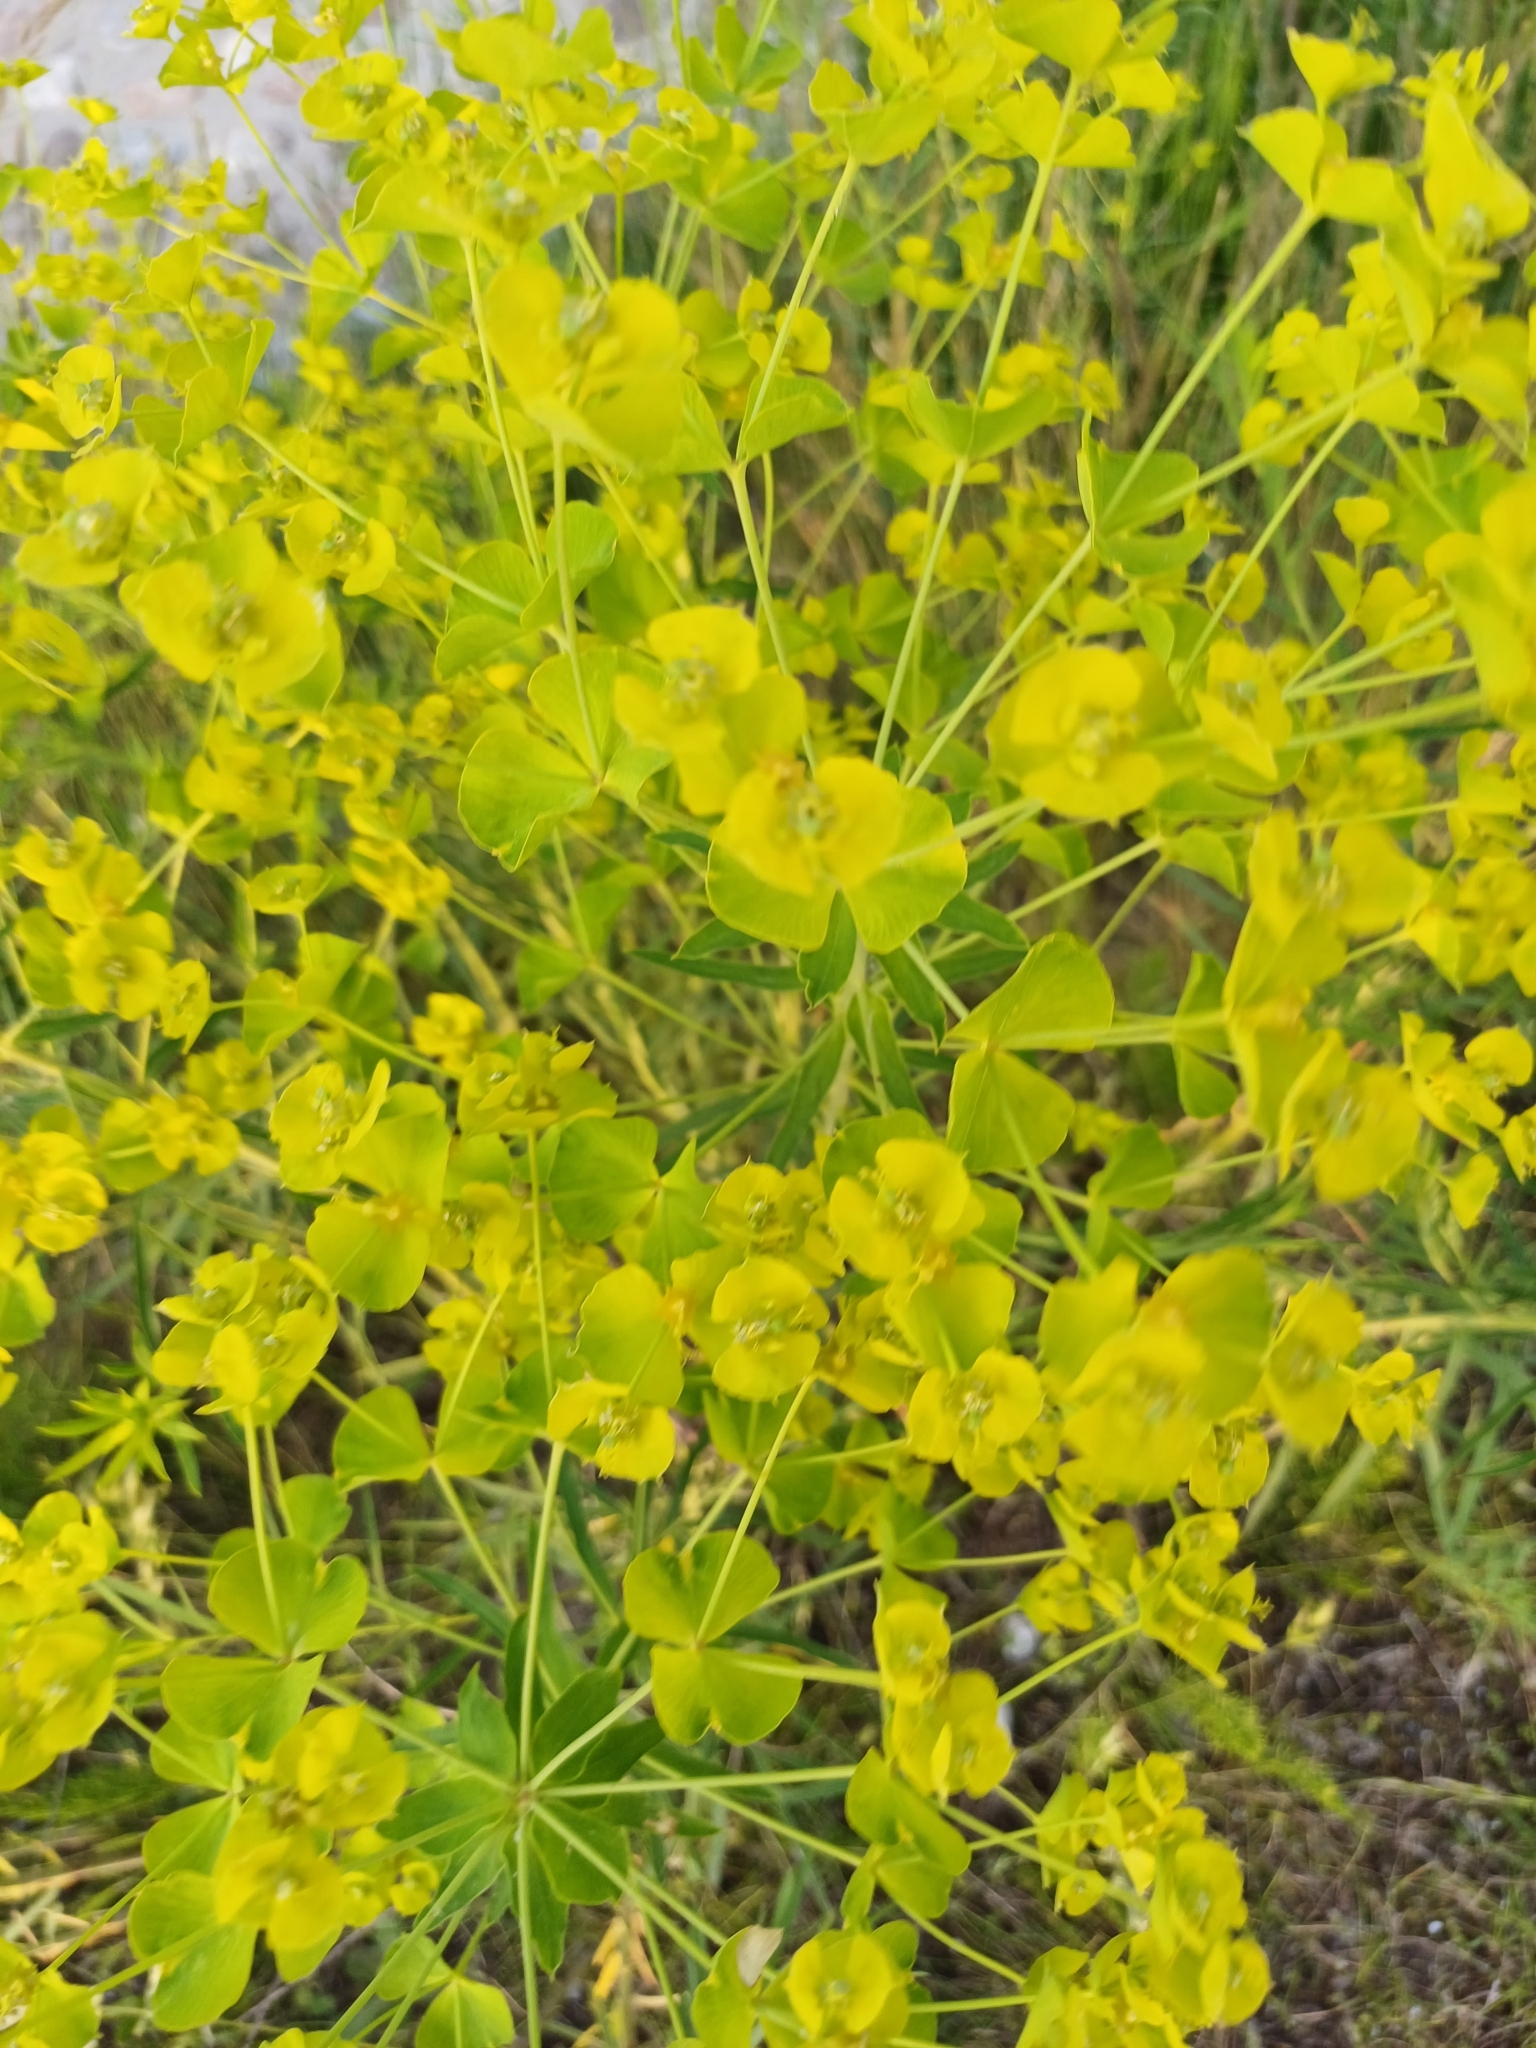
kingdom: Plantae
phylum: Tracheophyta
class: Magnoliopsida
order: Malpighiales
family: Euphorbiaceae
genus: Euphorbia
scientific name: Euphorbia virgata
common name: Leafy spurge
